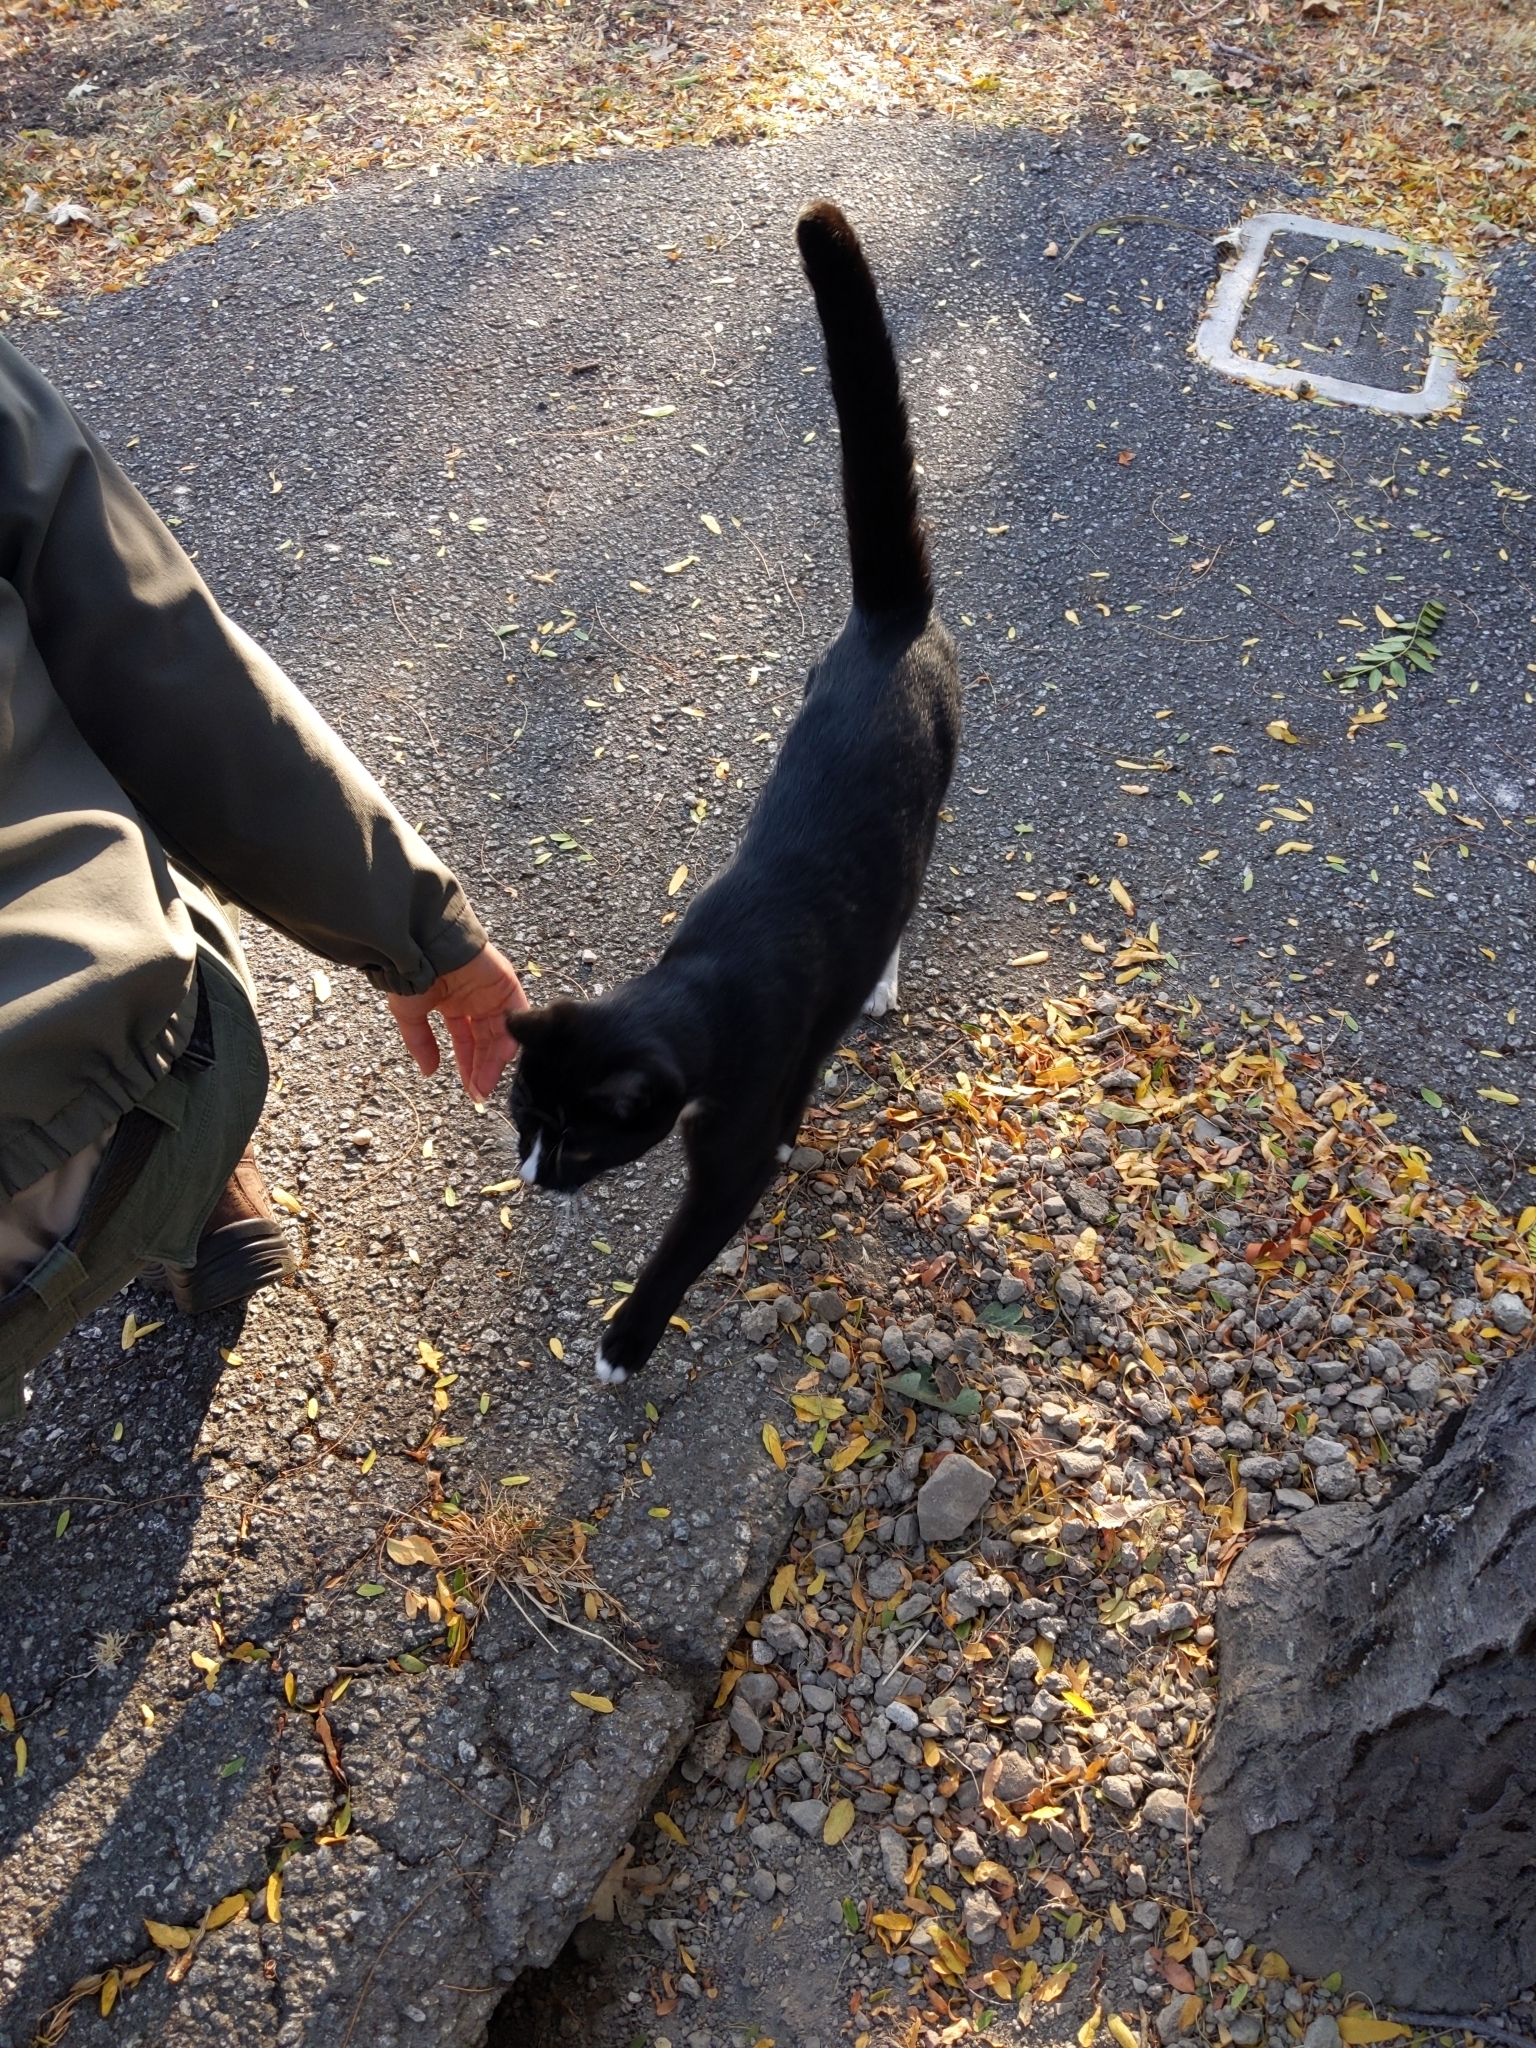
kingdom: Animalia
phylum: Chordata
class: Mammalia
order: Carnivora
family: Felidae
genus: Felis
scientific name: Felis catus
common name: Domestic cat
